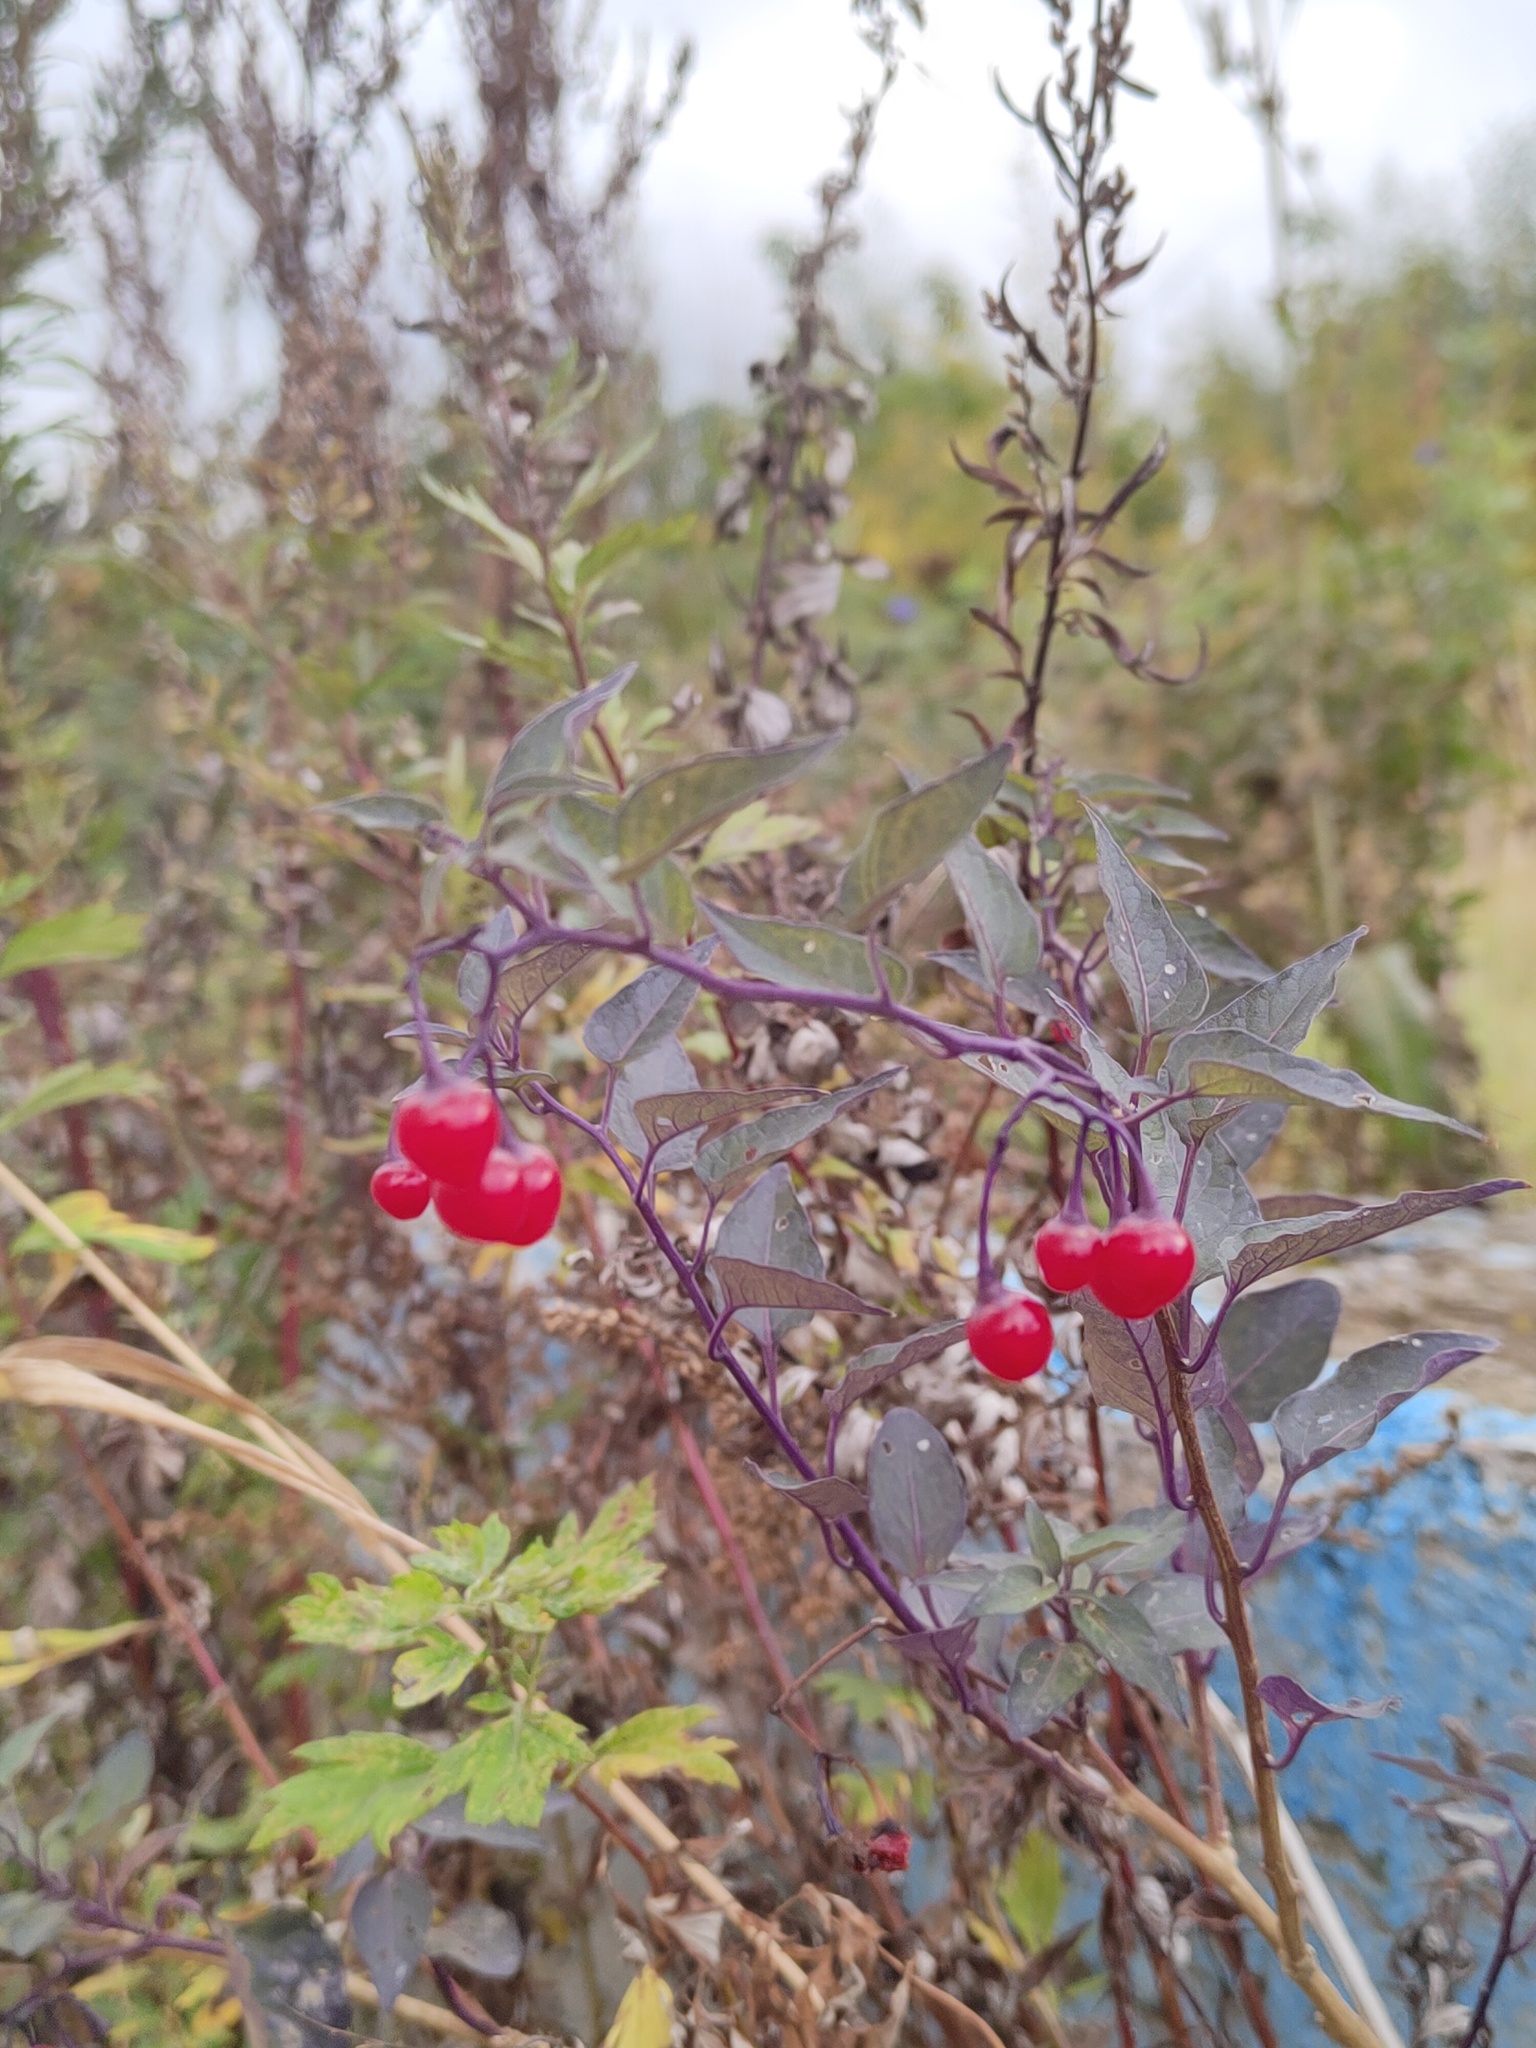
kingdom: Plantae
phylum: Tracheophyta
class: Magnoliopsida
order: Solanales
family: Solanaceae
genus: Solanum
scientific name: Solanum dulcamara
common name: Climbing nightshade
